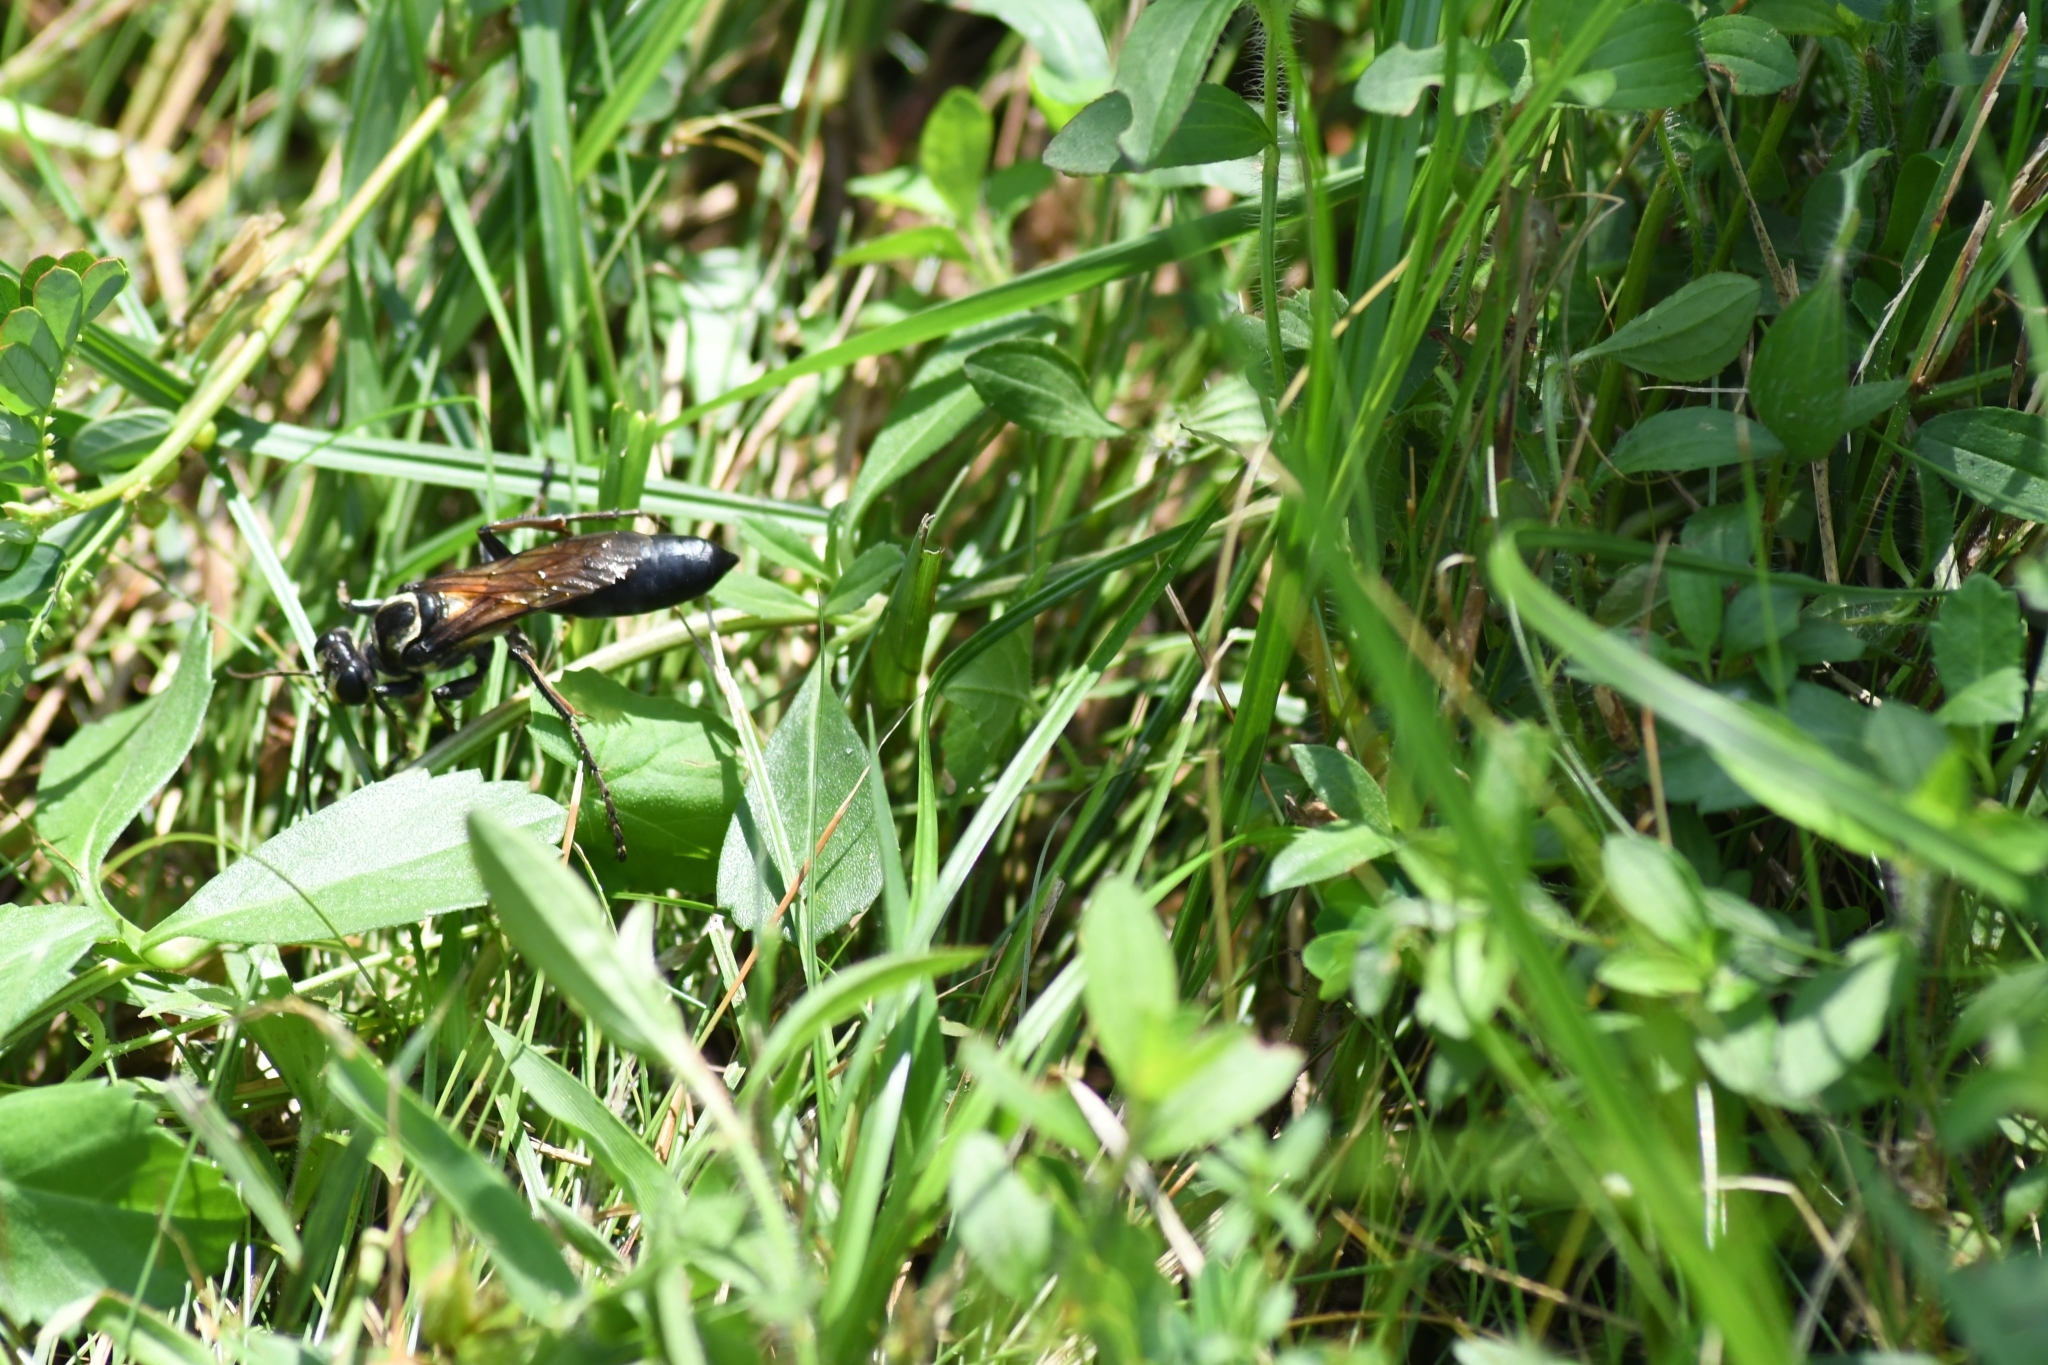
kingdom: Animalia
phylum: Arthropoda
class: Insecta
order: Hymenoptera
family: Sphecidae
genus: Sphex
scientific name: Sphex habenus
